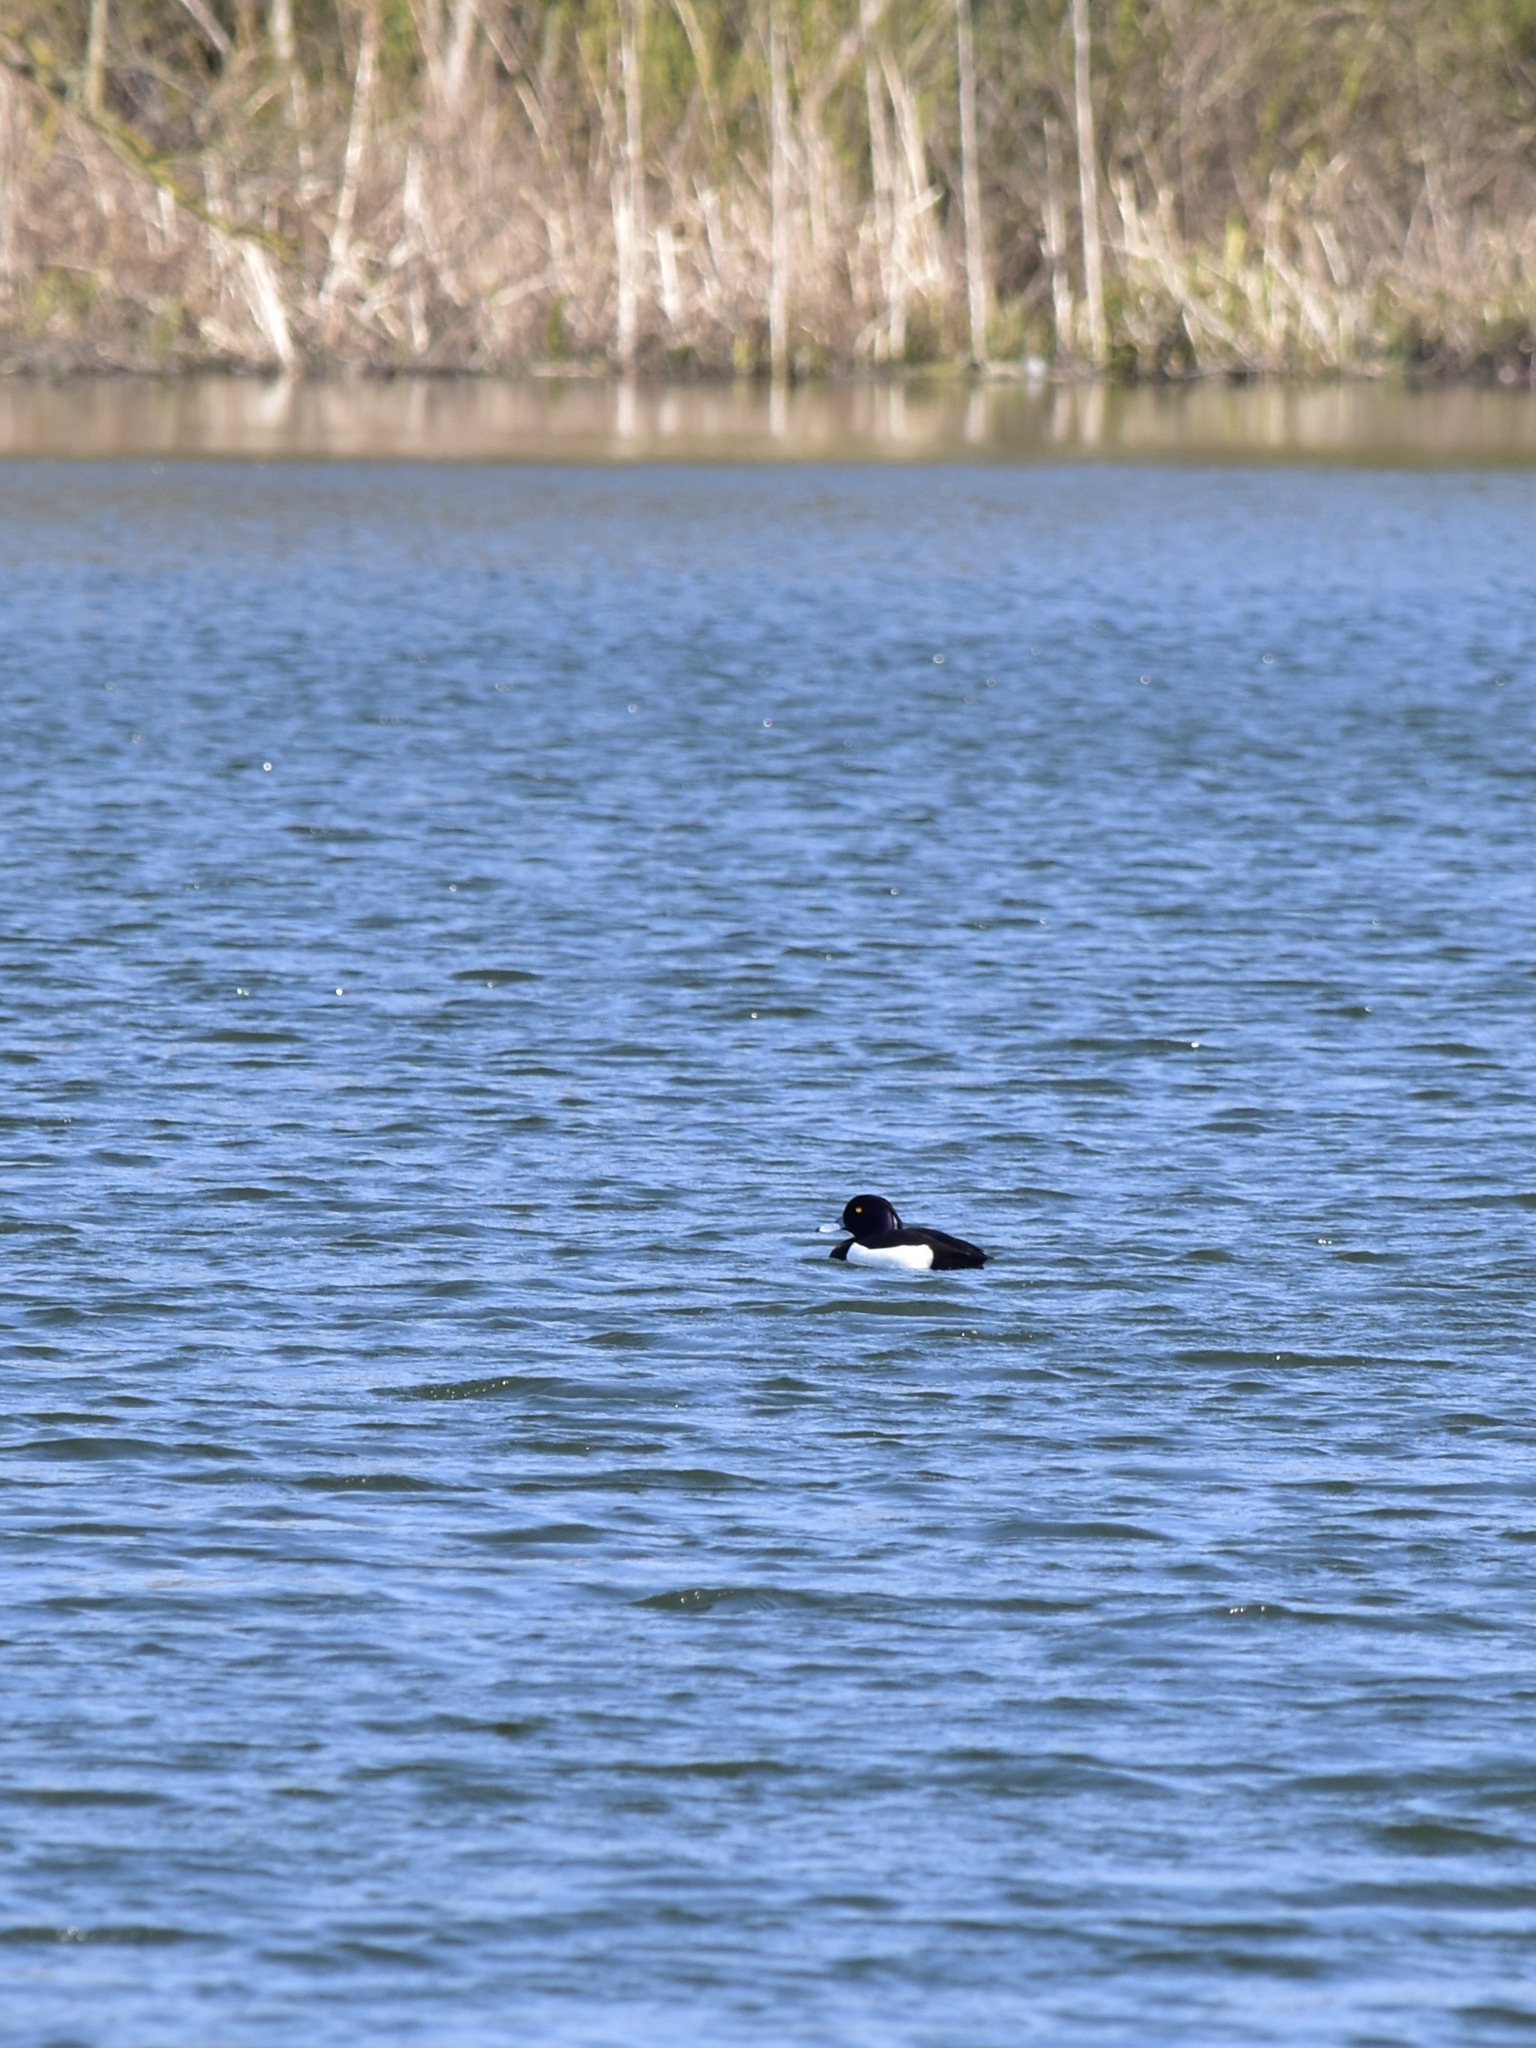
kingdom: Animalia
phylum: Chordata
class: Aves
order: Anseriformes
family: Anatidae
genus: Aythya
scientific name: Aythya fuligula
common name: Tufted duck
